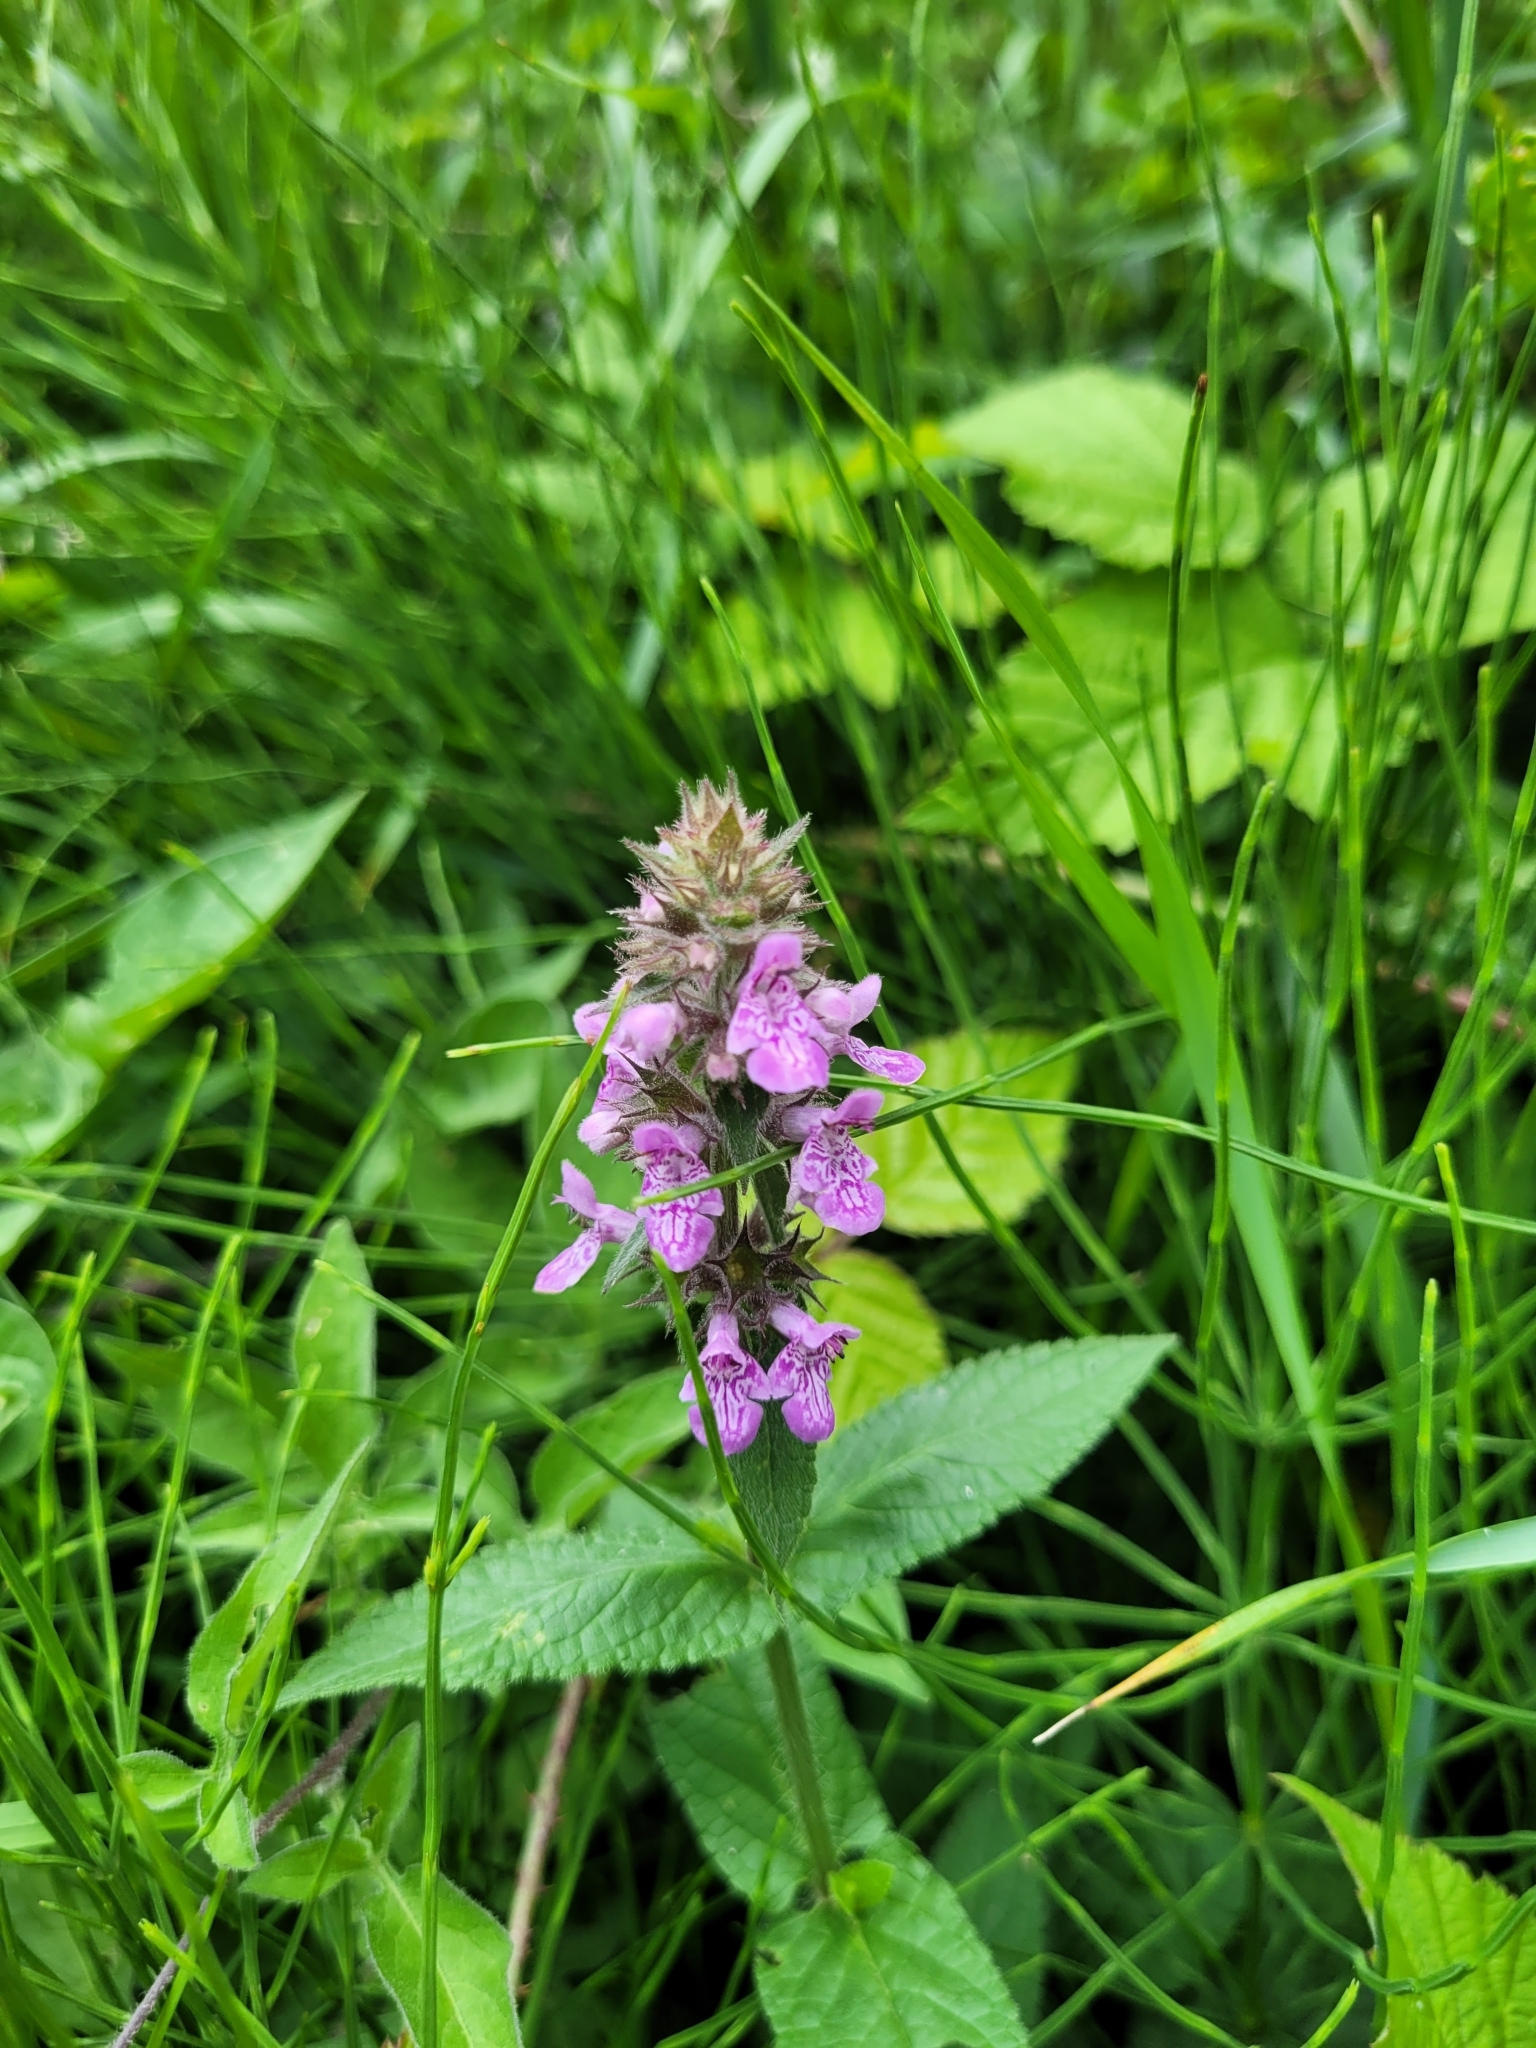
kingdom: Plantae
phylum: Tracheophyta
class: Magnoliopsida
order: Lamiales
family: Lamiaceae
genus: Stachys
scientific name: Stachys palustris
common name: Marsh woundwort
